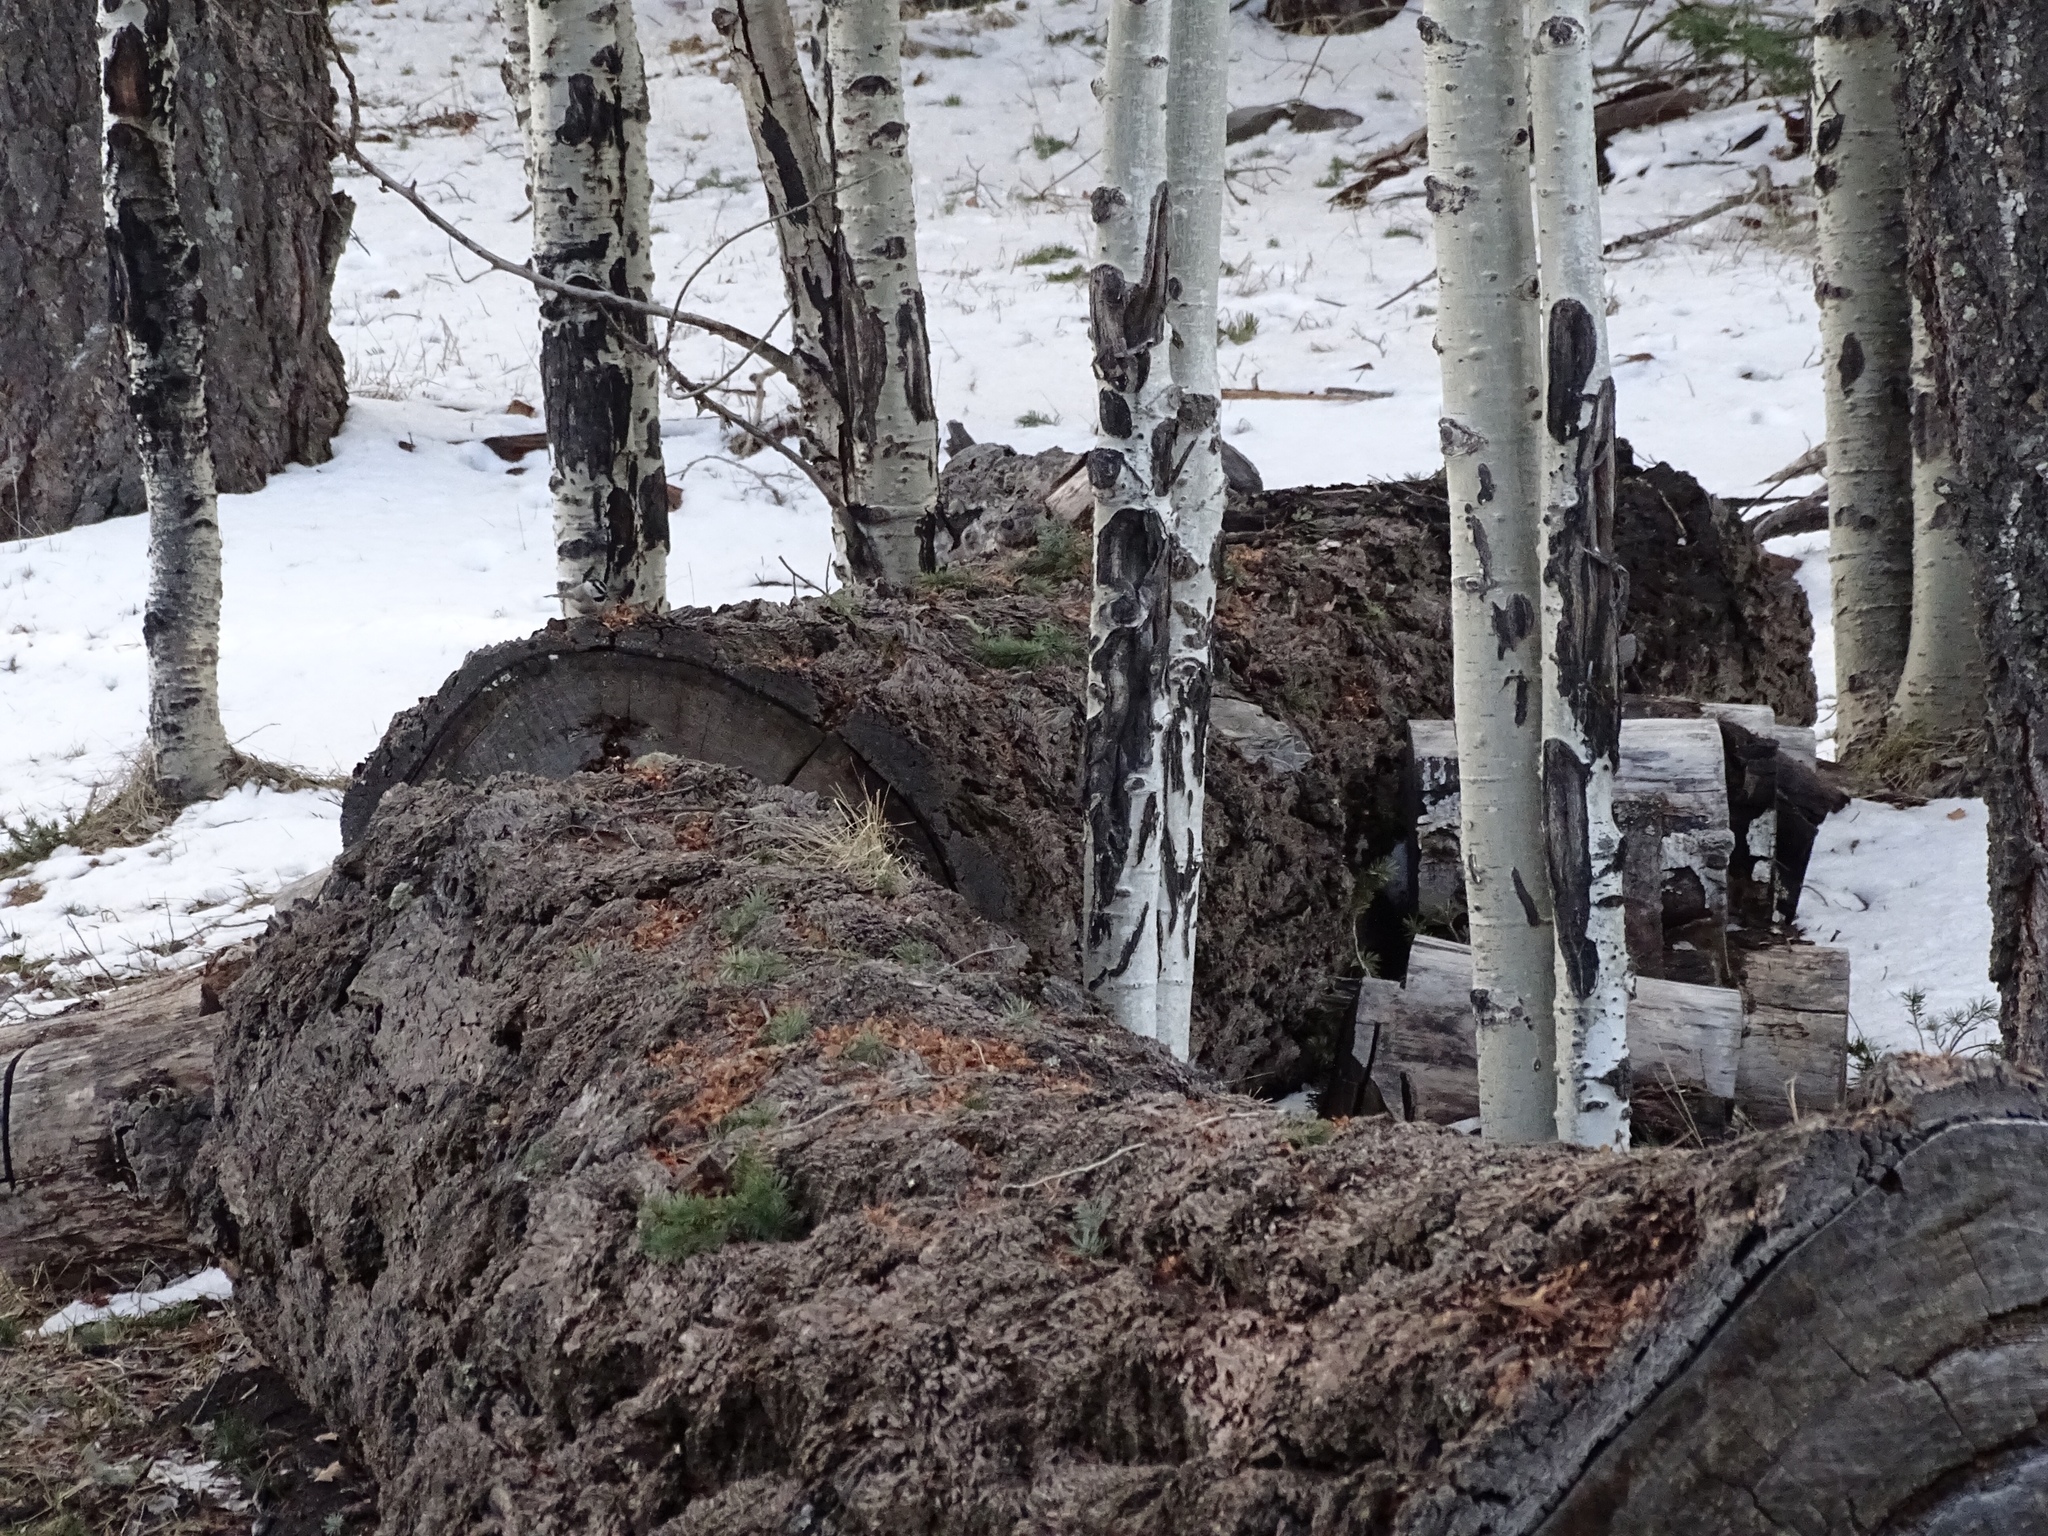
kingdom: Animalia
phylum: Chordata
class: Aves
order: Passeriformes
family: Paridae
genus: Poecile
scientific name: Poecile gambeli
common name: Mountain chickadee
